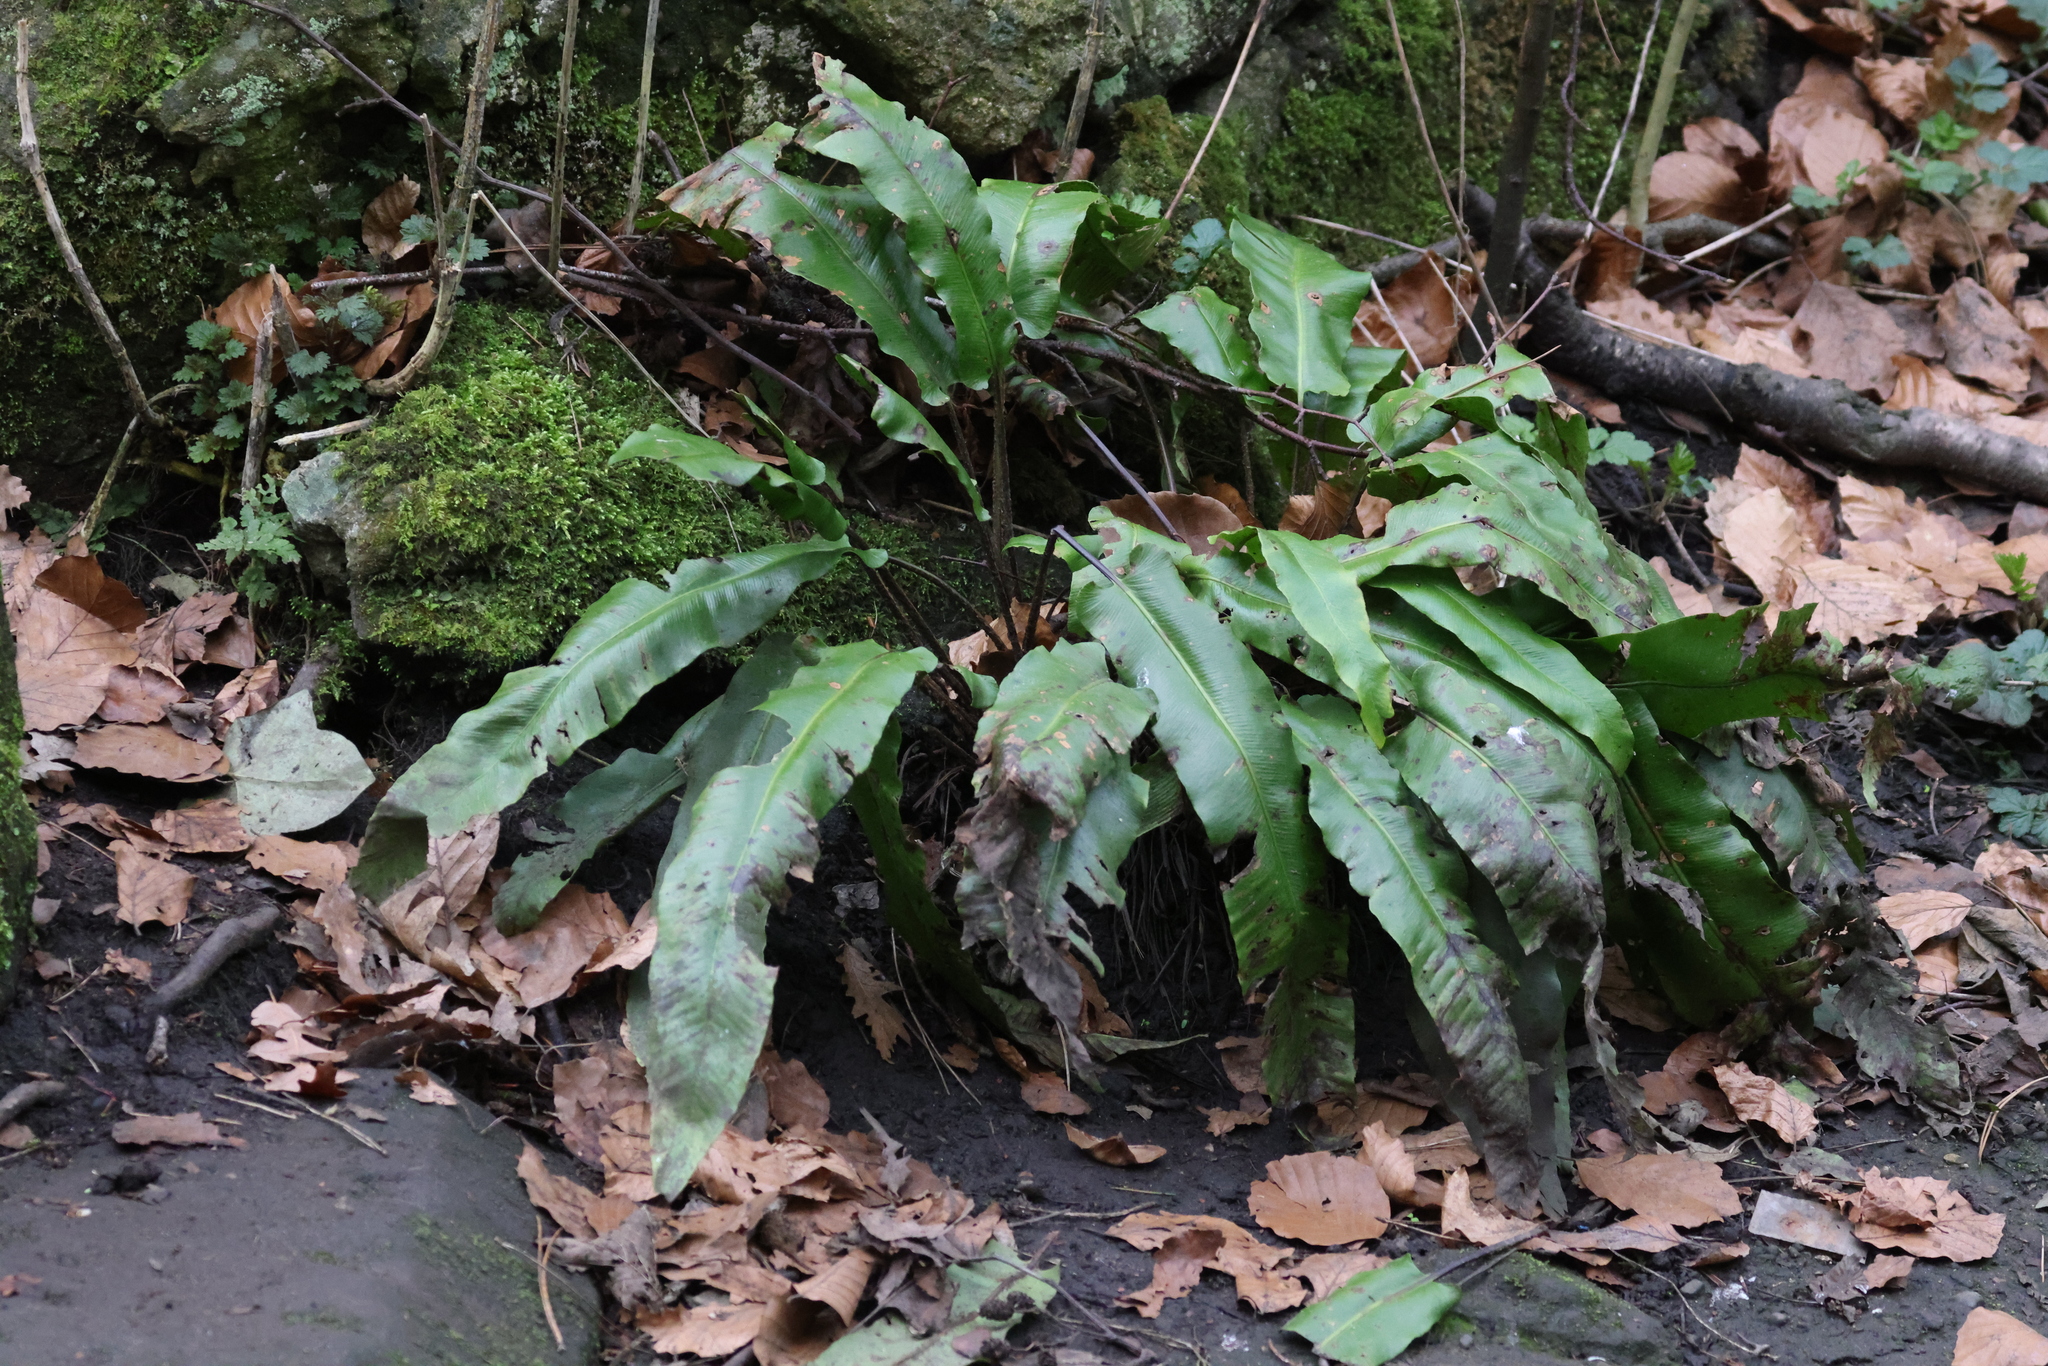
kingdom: Plantae
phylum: Tracheophyta
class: Polypodiopsida
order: Polypodiales
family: Aspleniaceae
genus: Asplenium
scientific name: Asplenium scolopendrium
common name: Hart's-tongue fern
